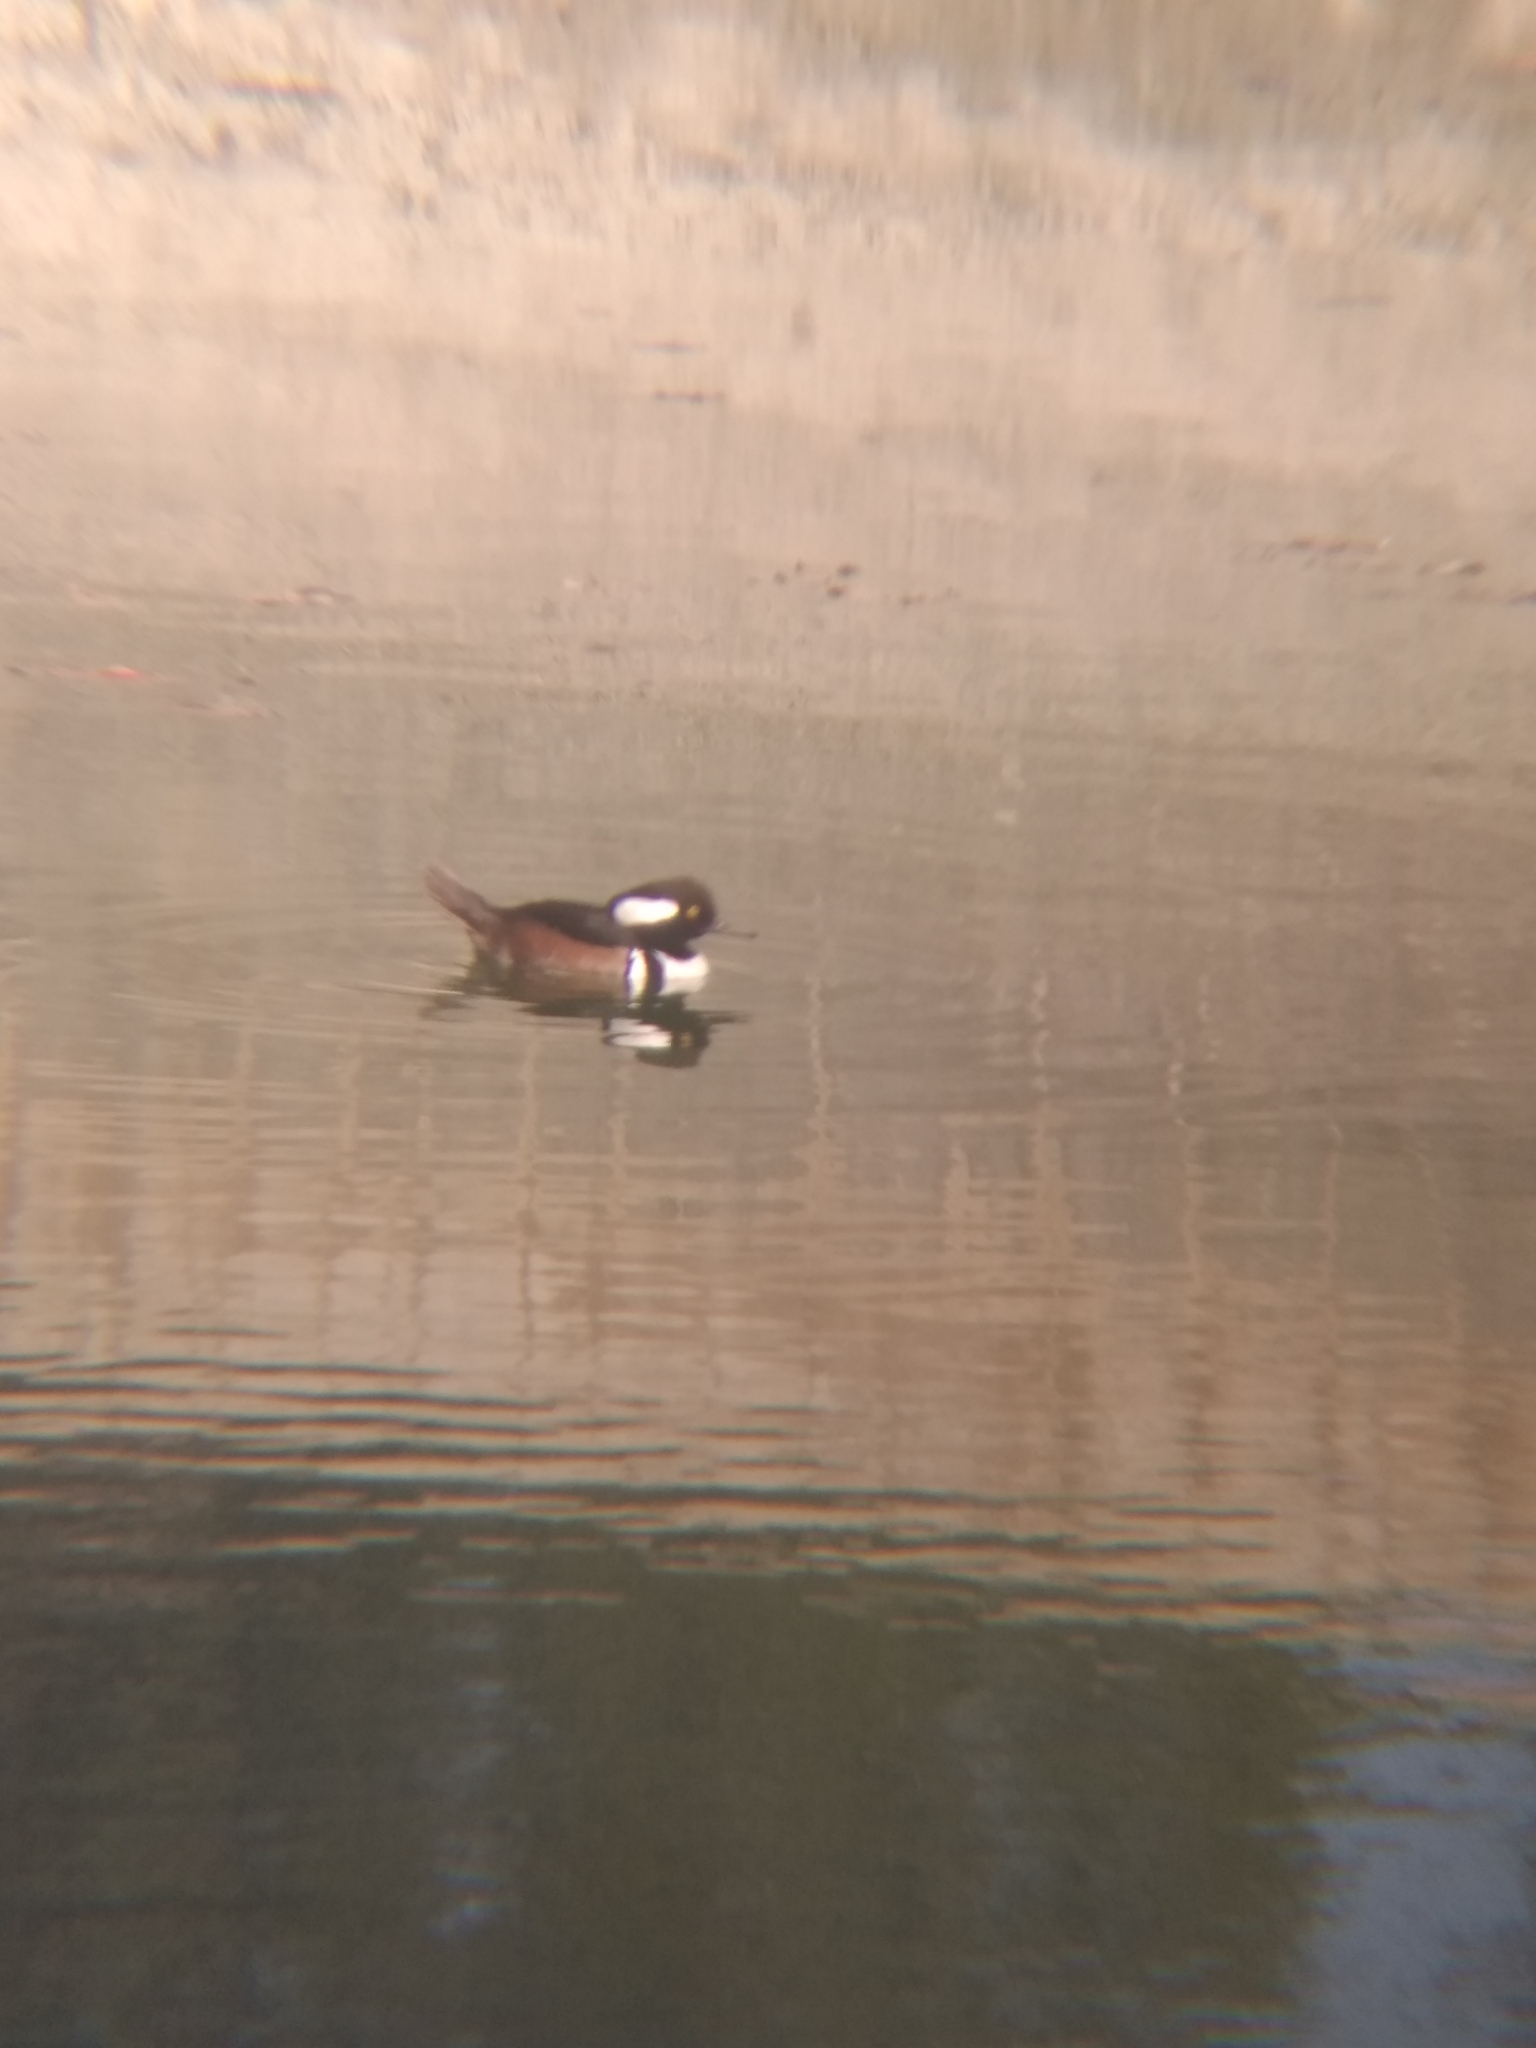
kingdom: Animalia
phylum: Chordata
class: Aves
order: Anseriformes
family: Anatidae
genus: Lophodytes
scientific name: Lophodytes cucullatus
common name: Hooded merganser
